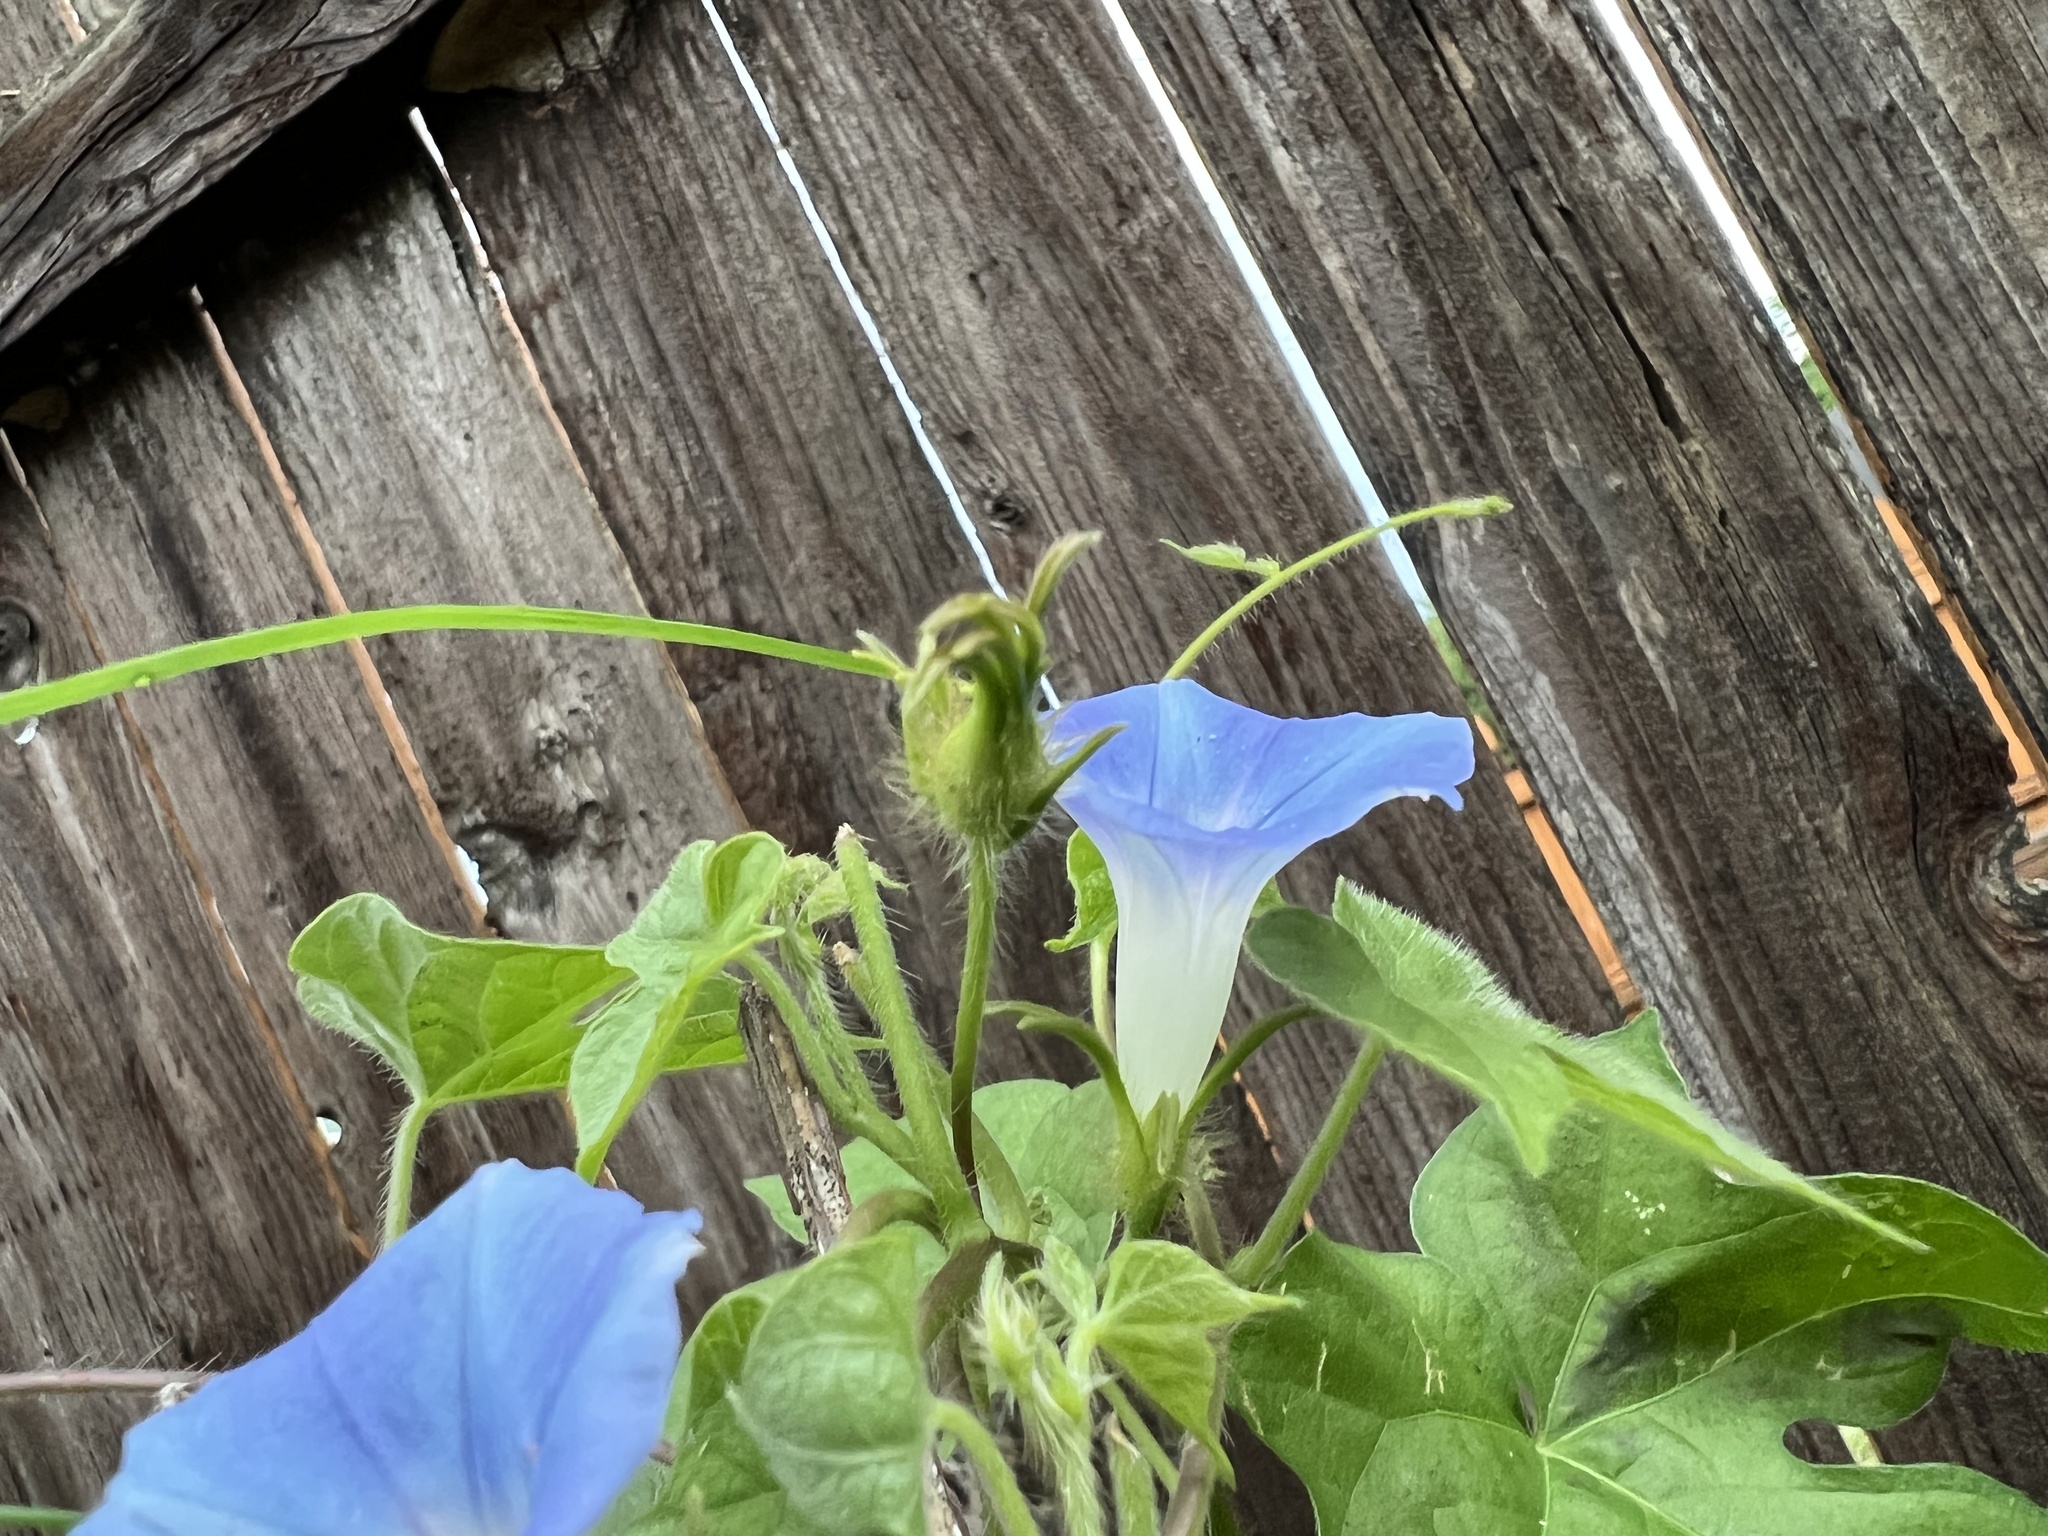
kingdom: Plantae
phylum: Tracheophyta
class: Magnoliopsida
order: Solanales
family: Convolvulaceae
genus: Ipomoea
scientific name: Ipomoea hederacea
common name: Ivy-leaved morning-glory
